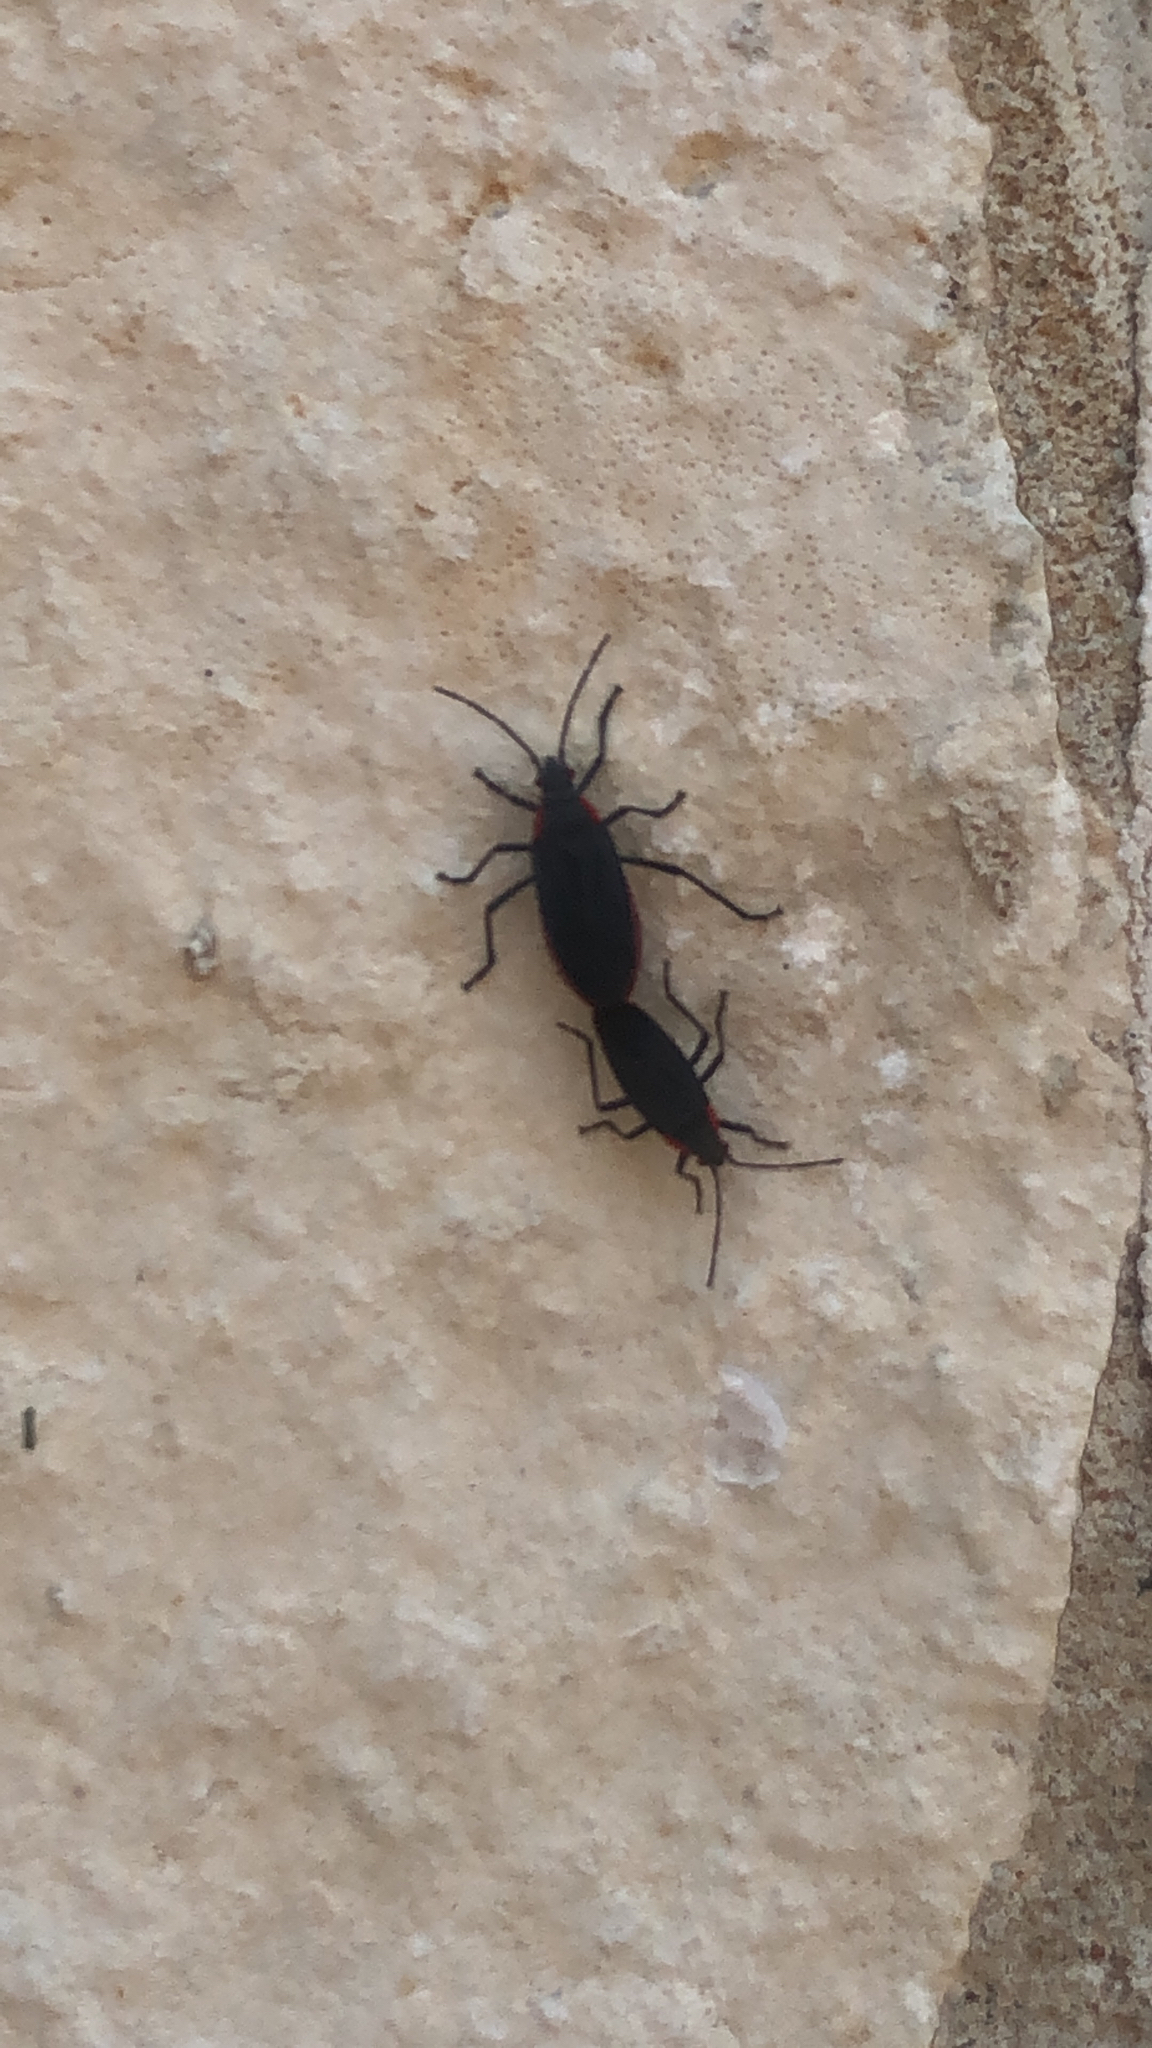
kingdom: Animalia
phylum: Arthropoda
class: Insecta
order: Hemiptera
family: Rhopalidae
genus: Jadera
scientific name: Jadera haematoloma
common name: Red-shouldered bug
